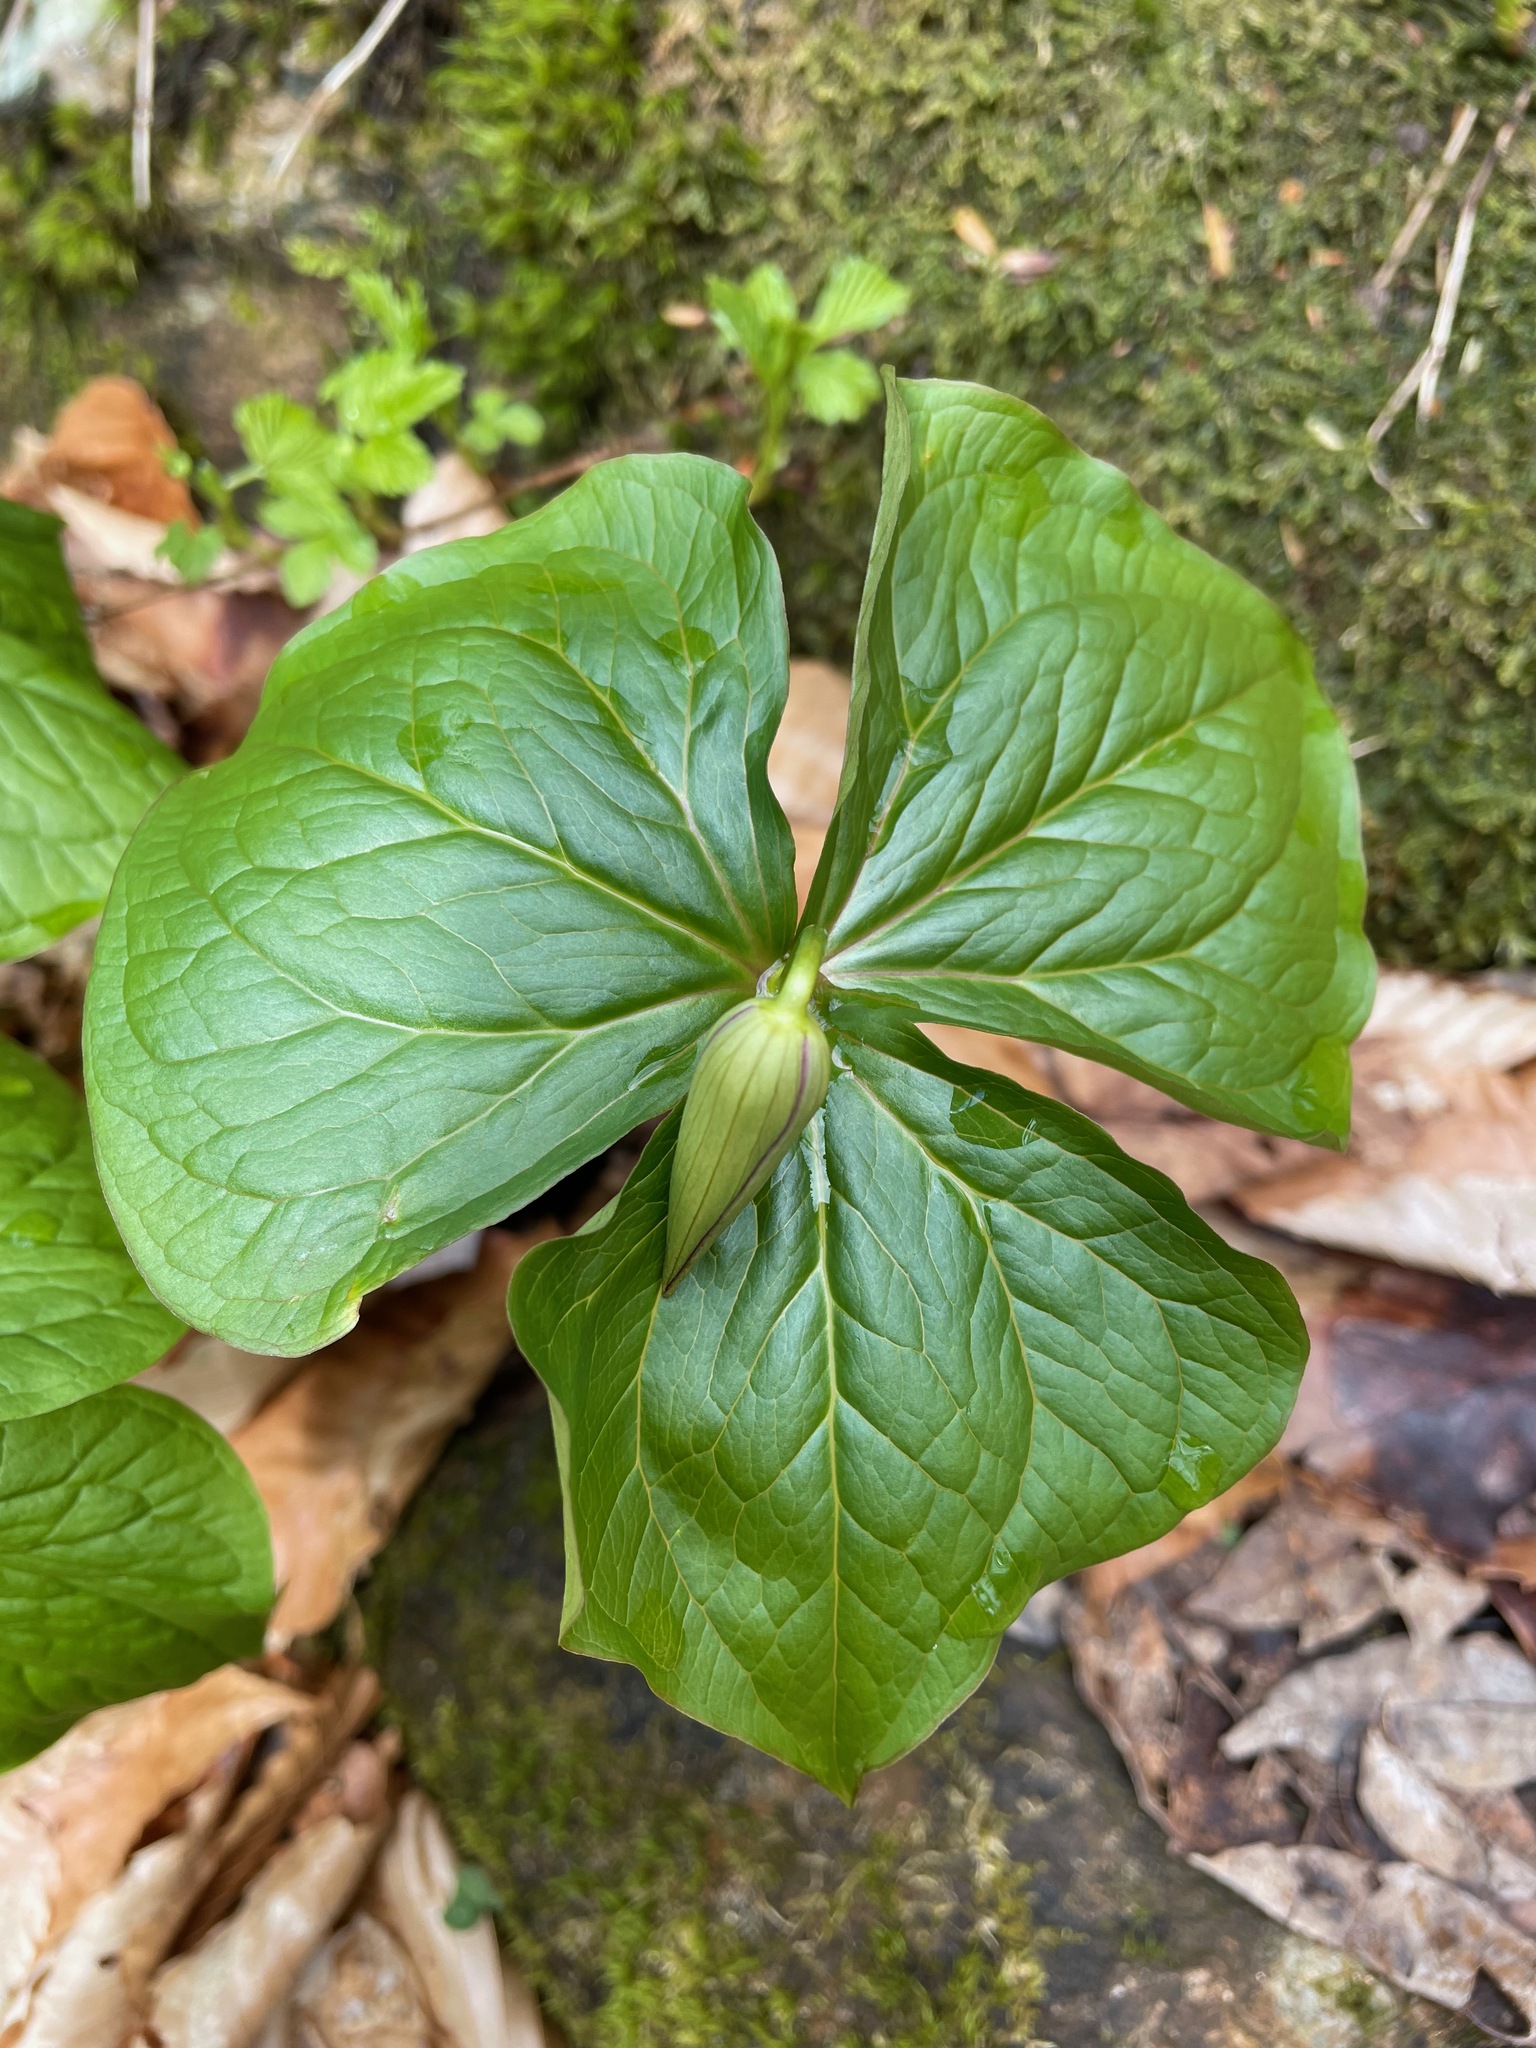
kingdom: Plantae
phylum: Tracheophyta
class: Liliopsida
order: Liliales
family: Melanthiaceae
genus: Trillium
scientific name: Trillium erectum
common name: Purple trillium
